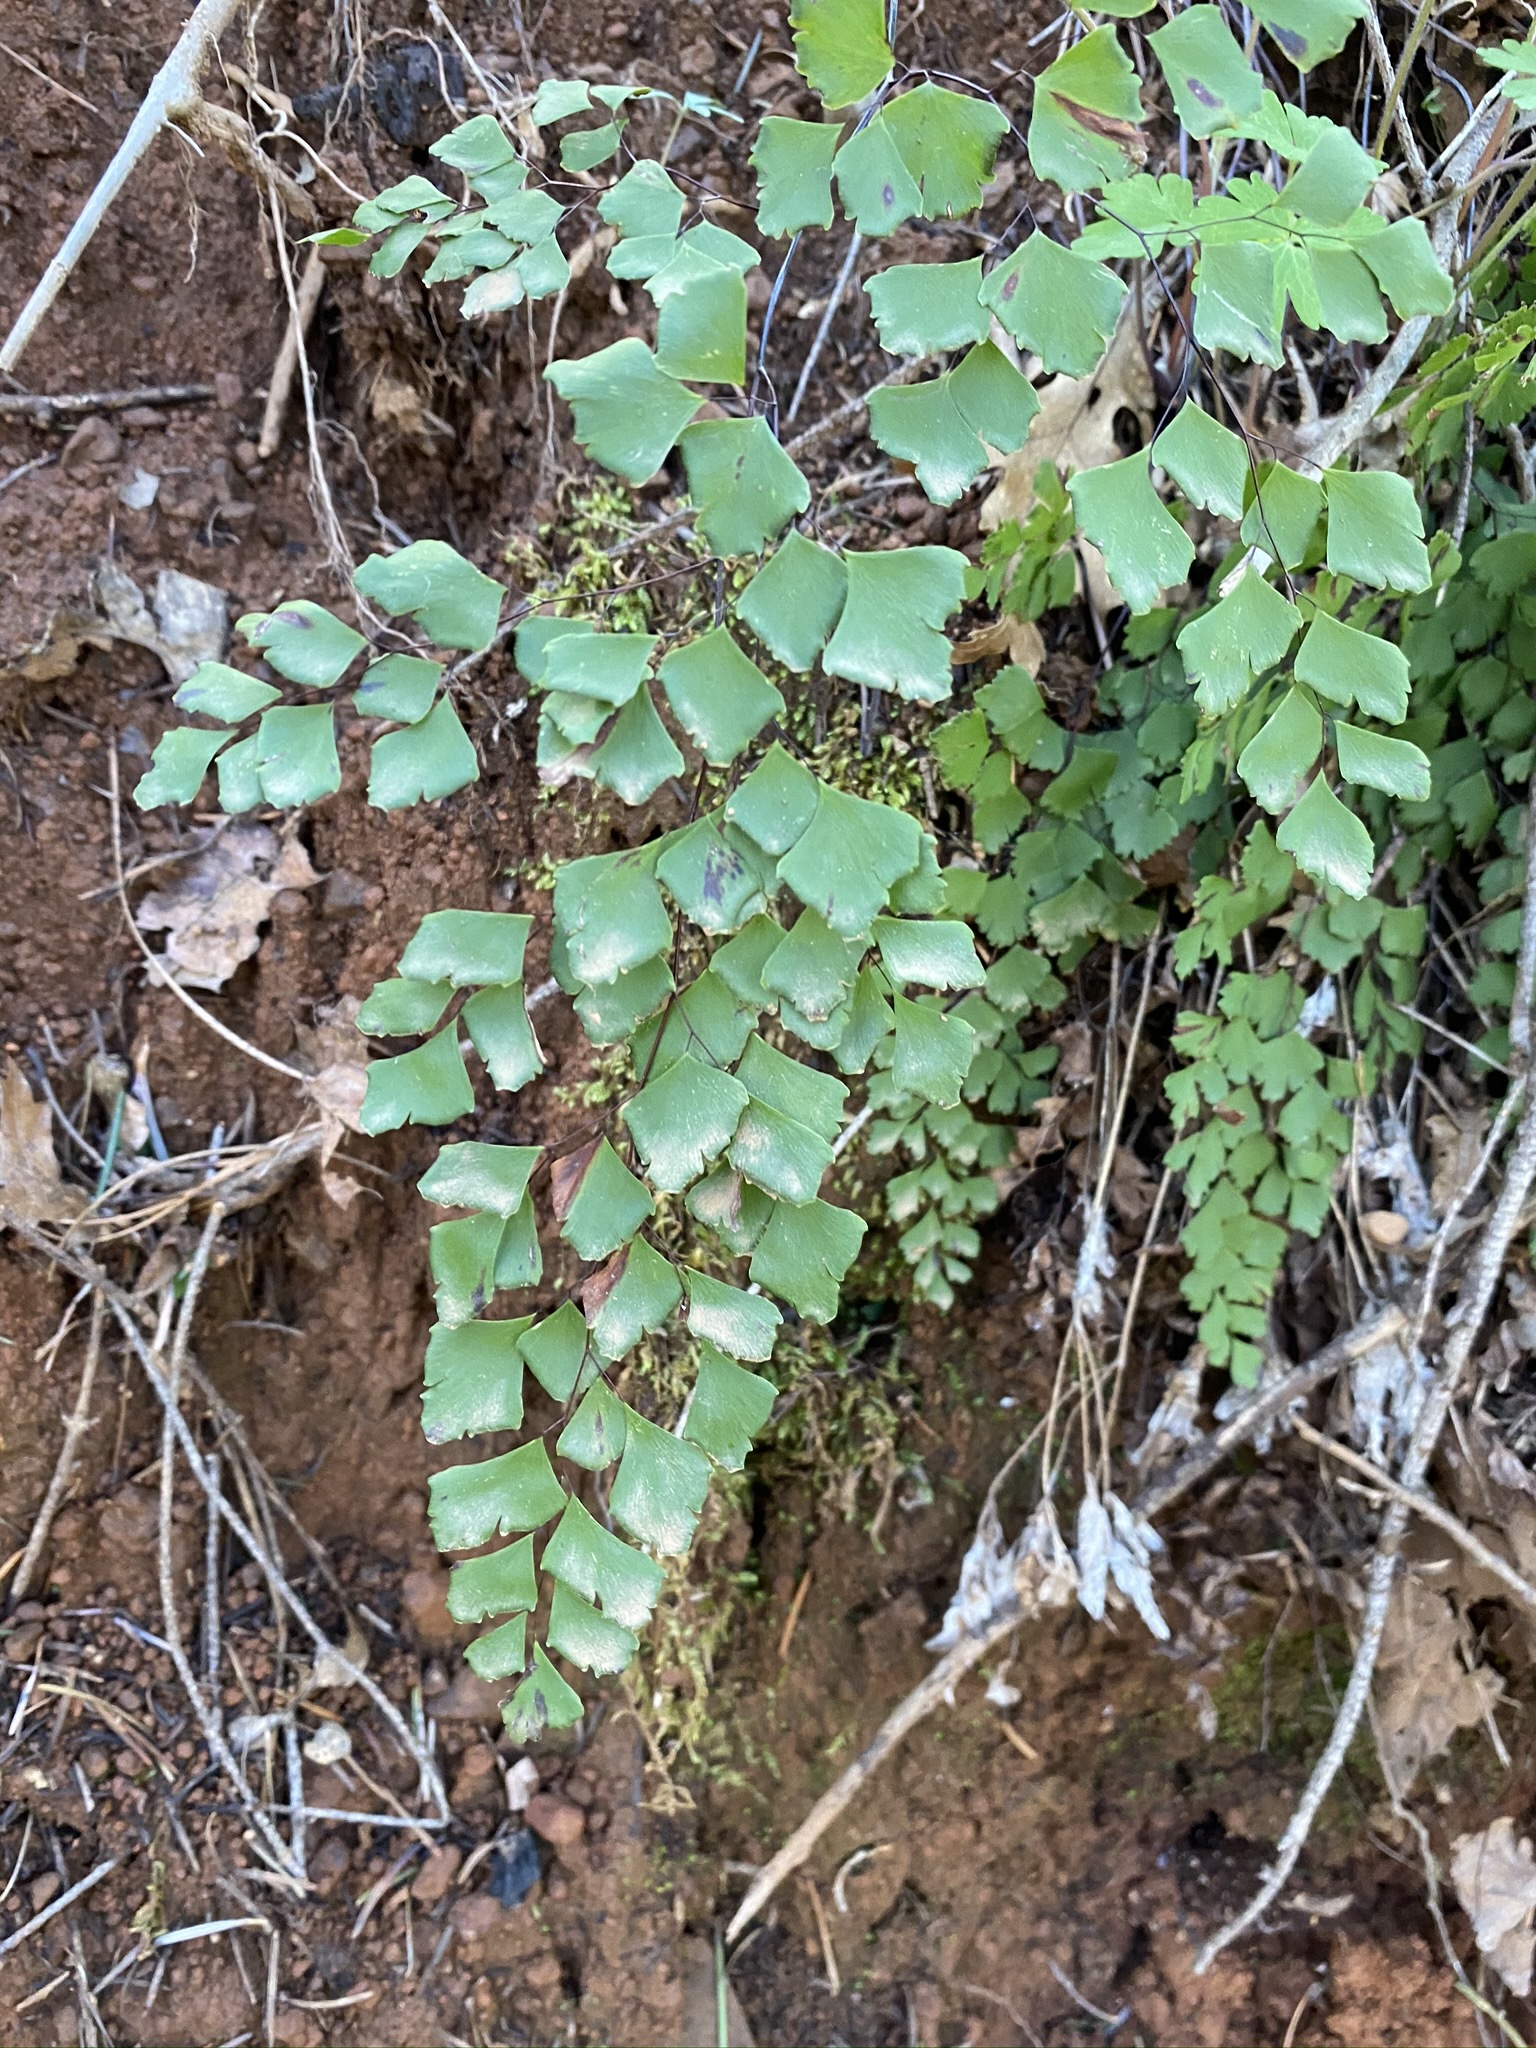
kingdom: Plantae
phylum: Tracheophyta
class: Polypodiopsida
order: Polypodiales
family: Pteridaceae
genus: Adiantum
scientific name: Adiantum shastense
